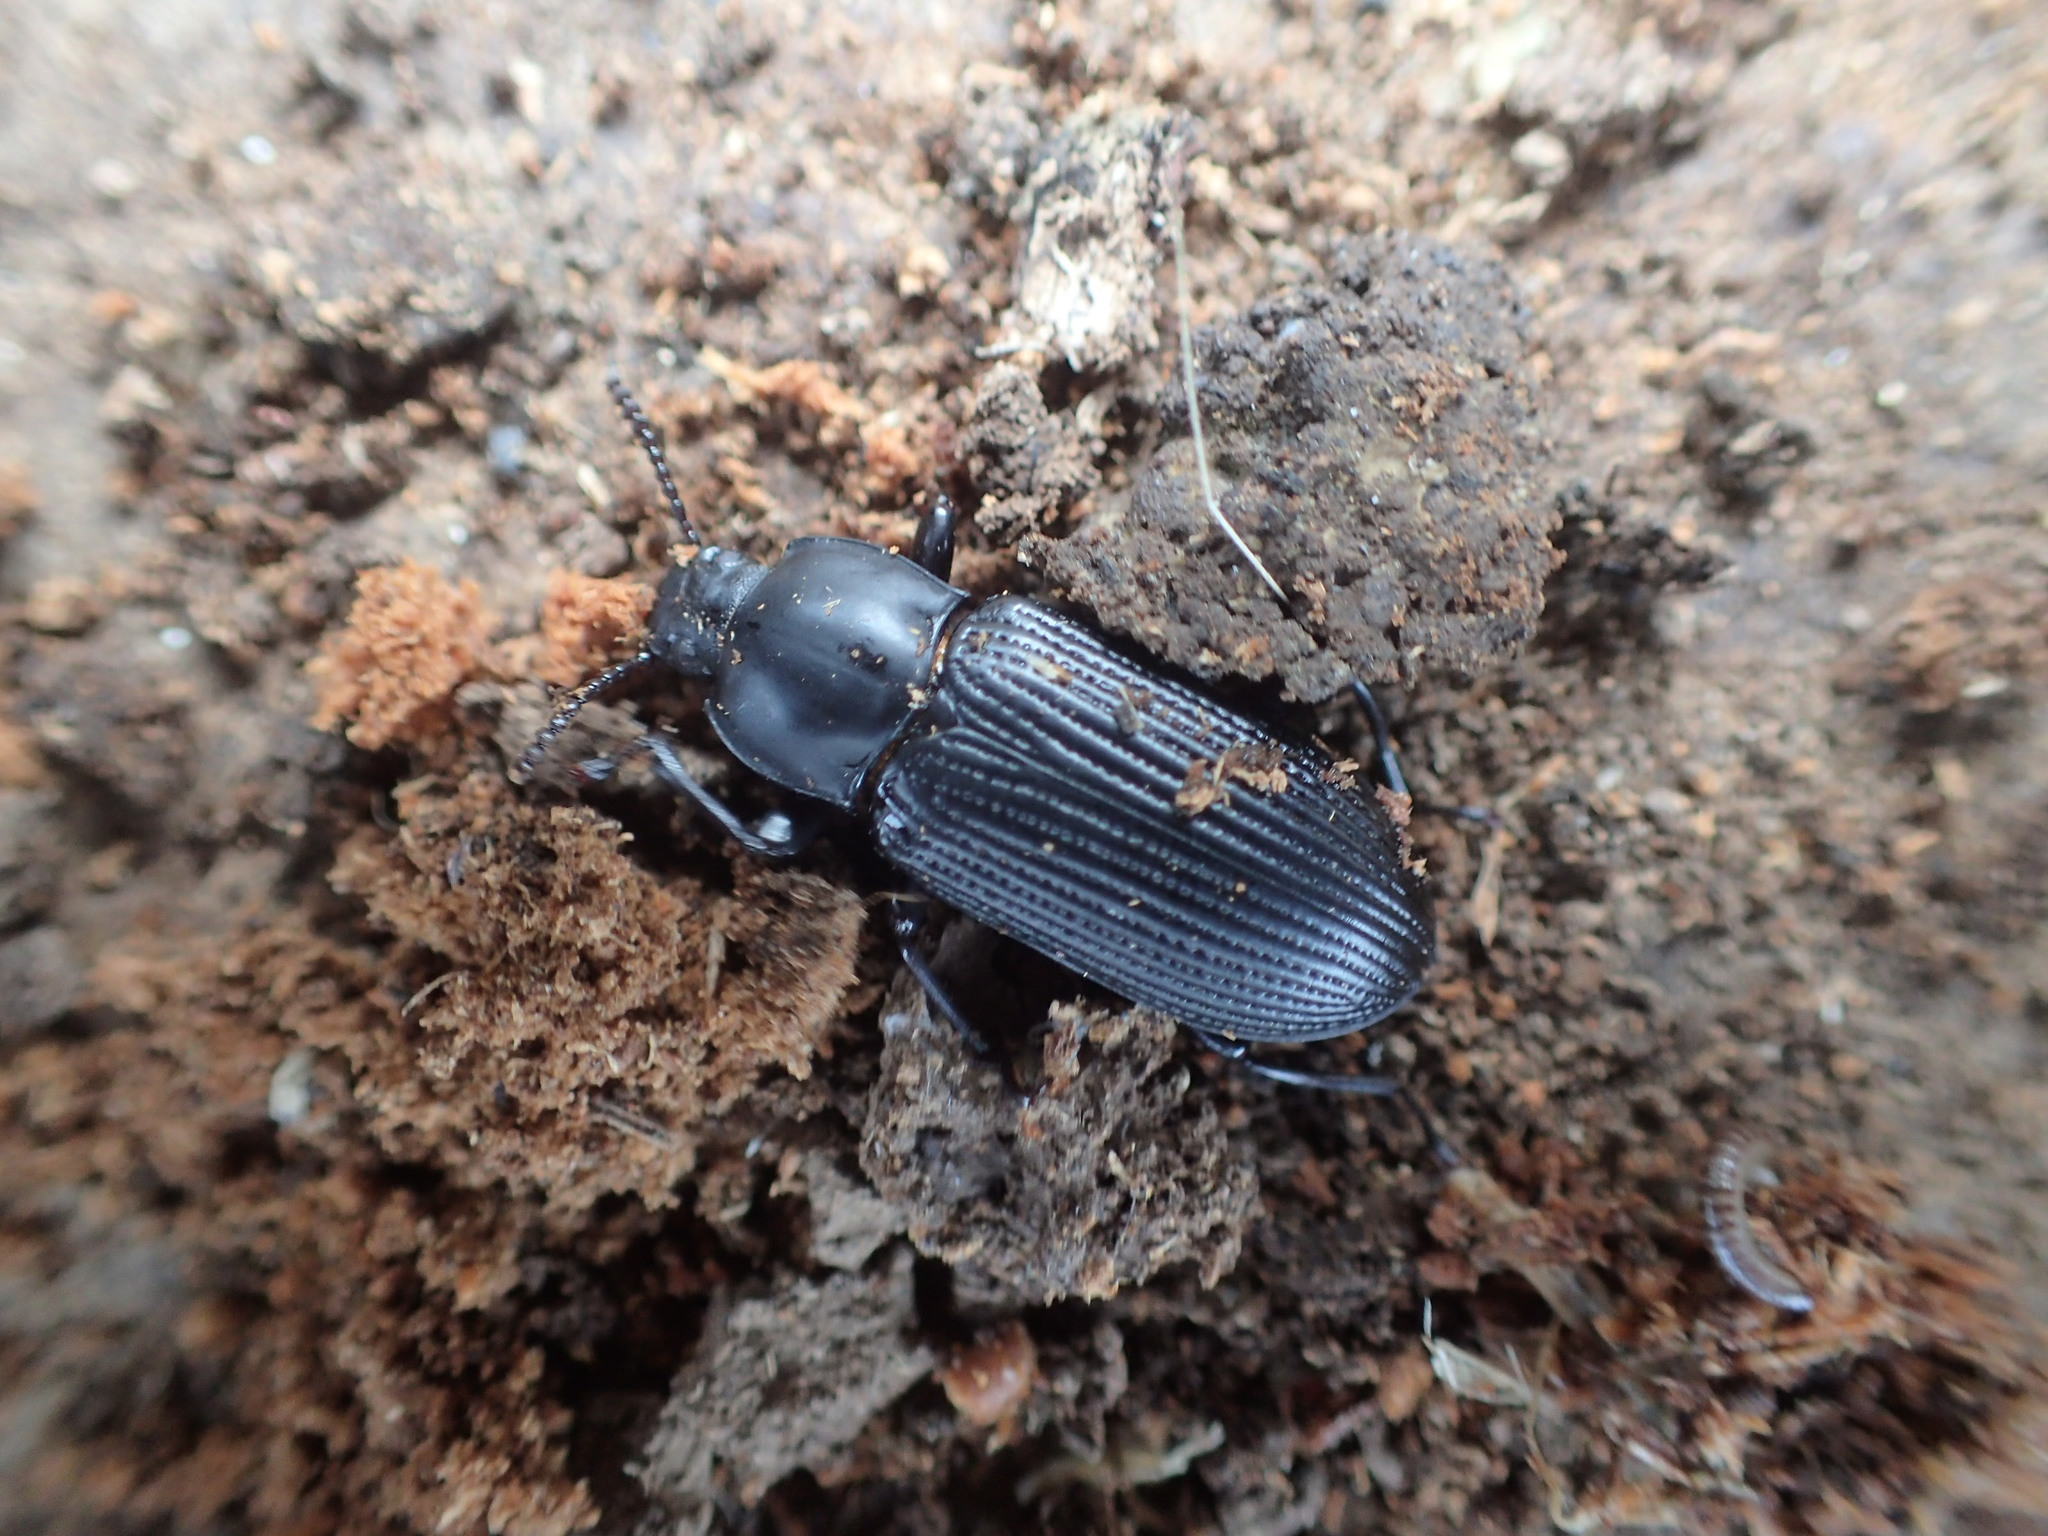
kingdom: Animalia
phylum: Arthropoda
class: Insecta
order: Coleoptera
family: Tenebrionidae
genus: Meneristes
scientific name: Meneristes australis
